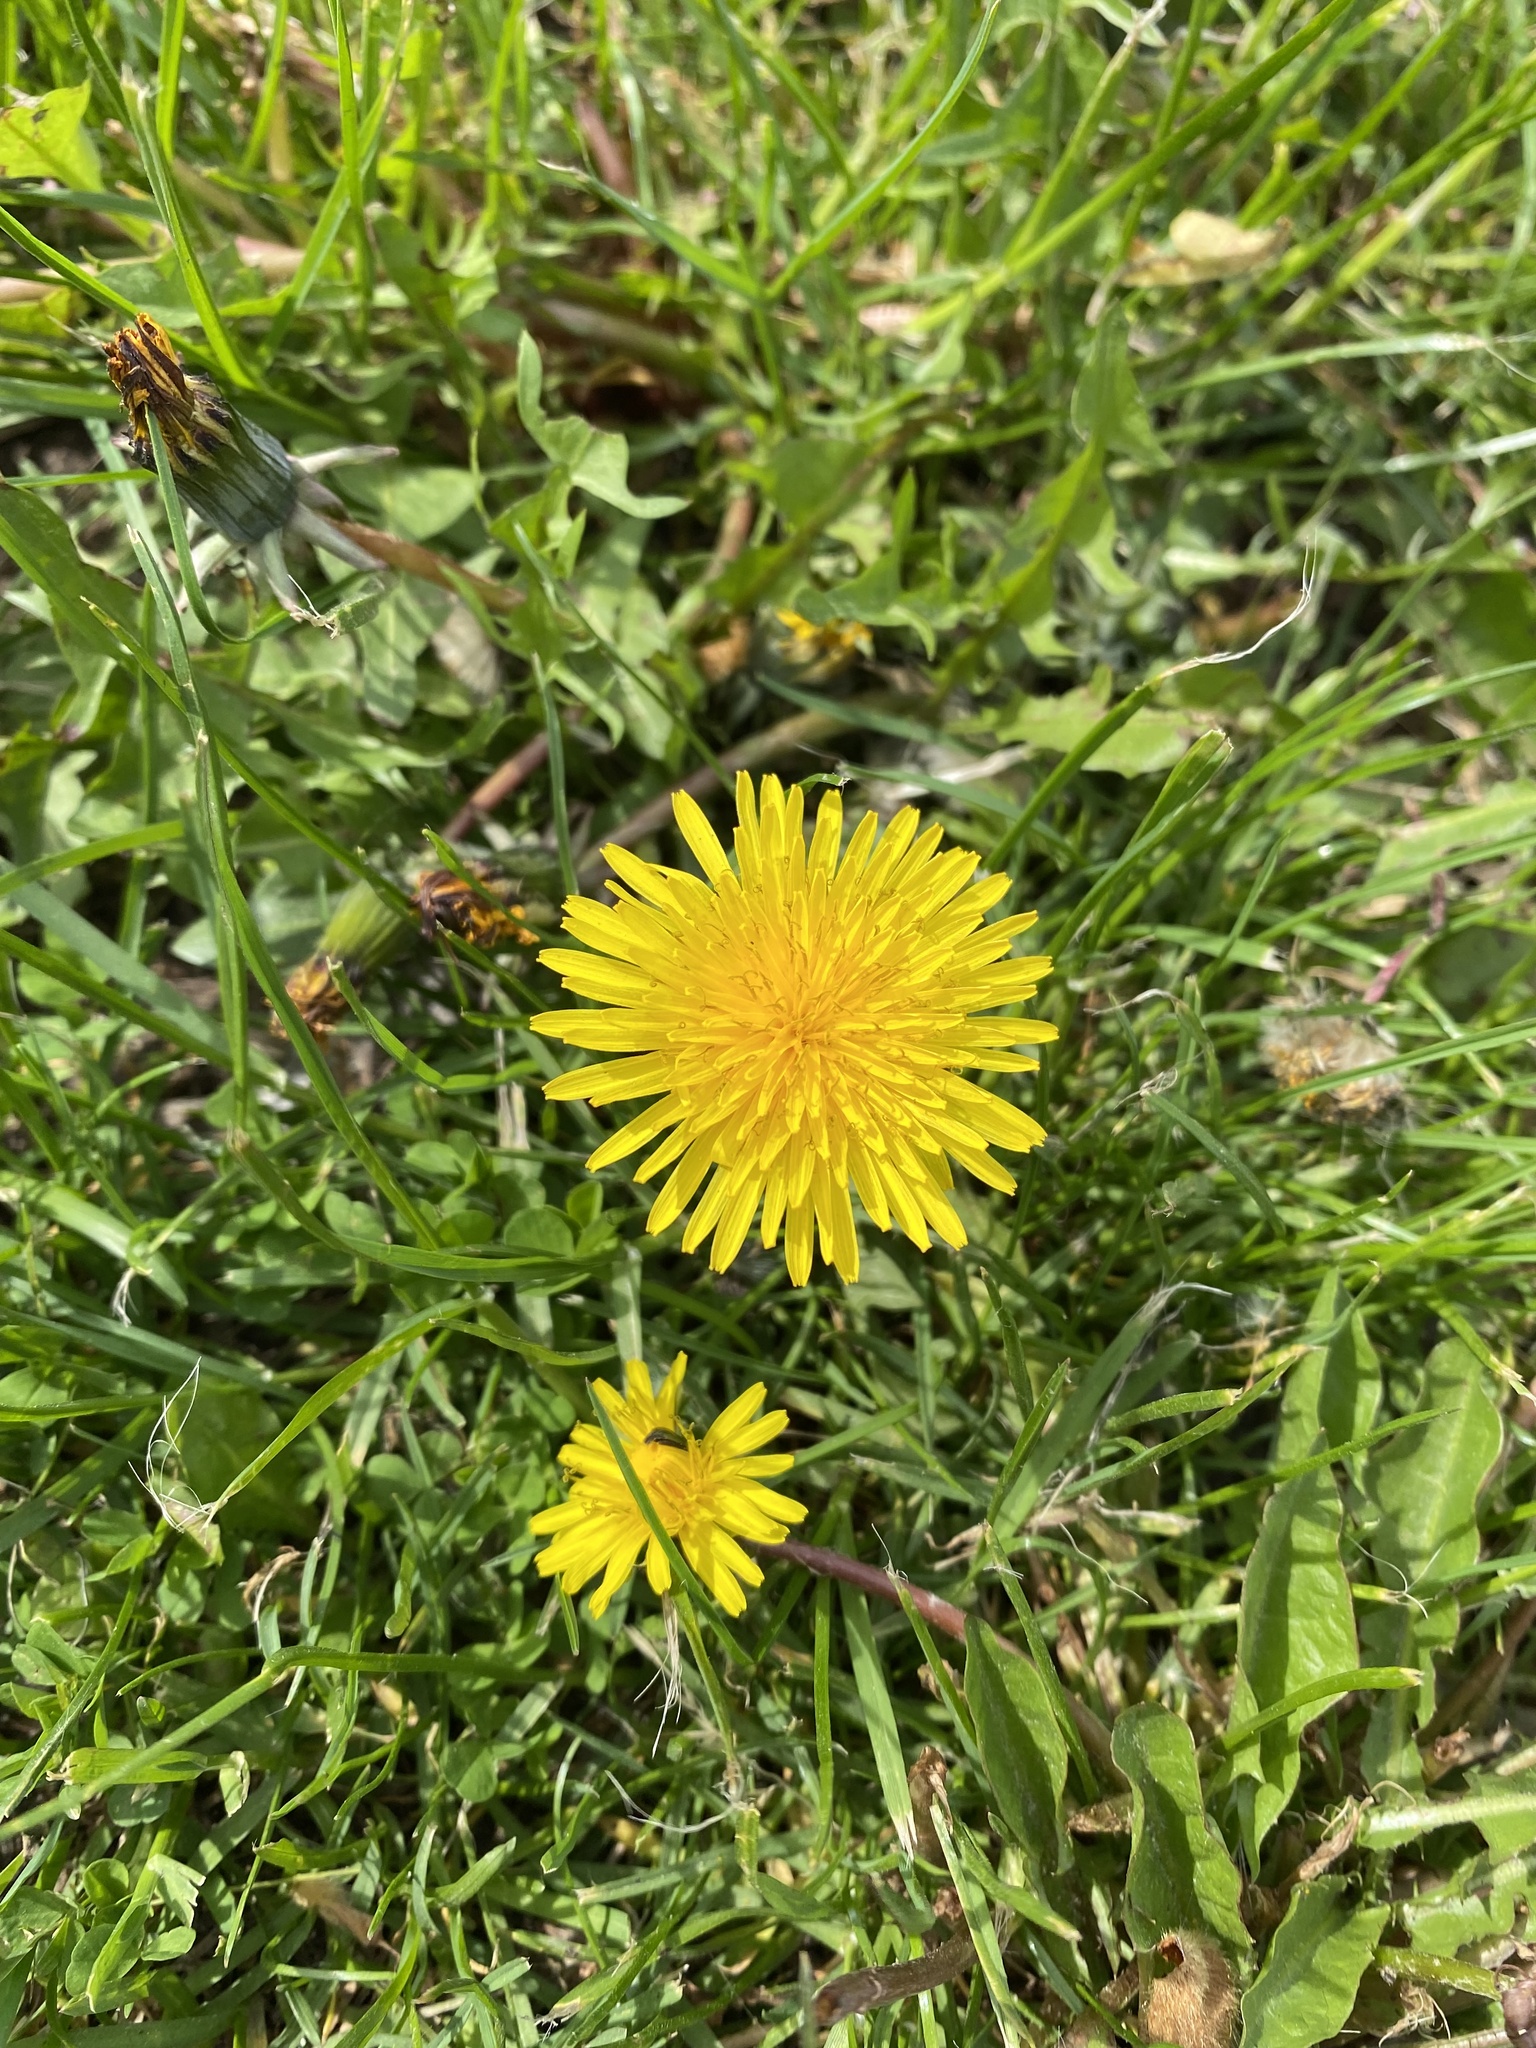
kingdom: Plantae
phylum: Tracheophyta
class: Magnoliopsida
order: Asterales
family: Asteraceae
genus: Taraxacum
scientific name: Taraxacum officinale
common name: Common dandelion
